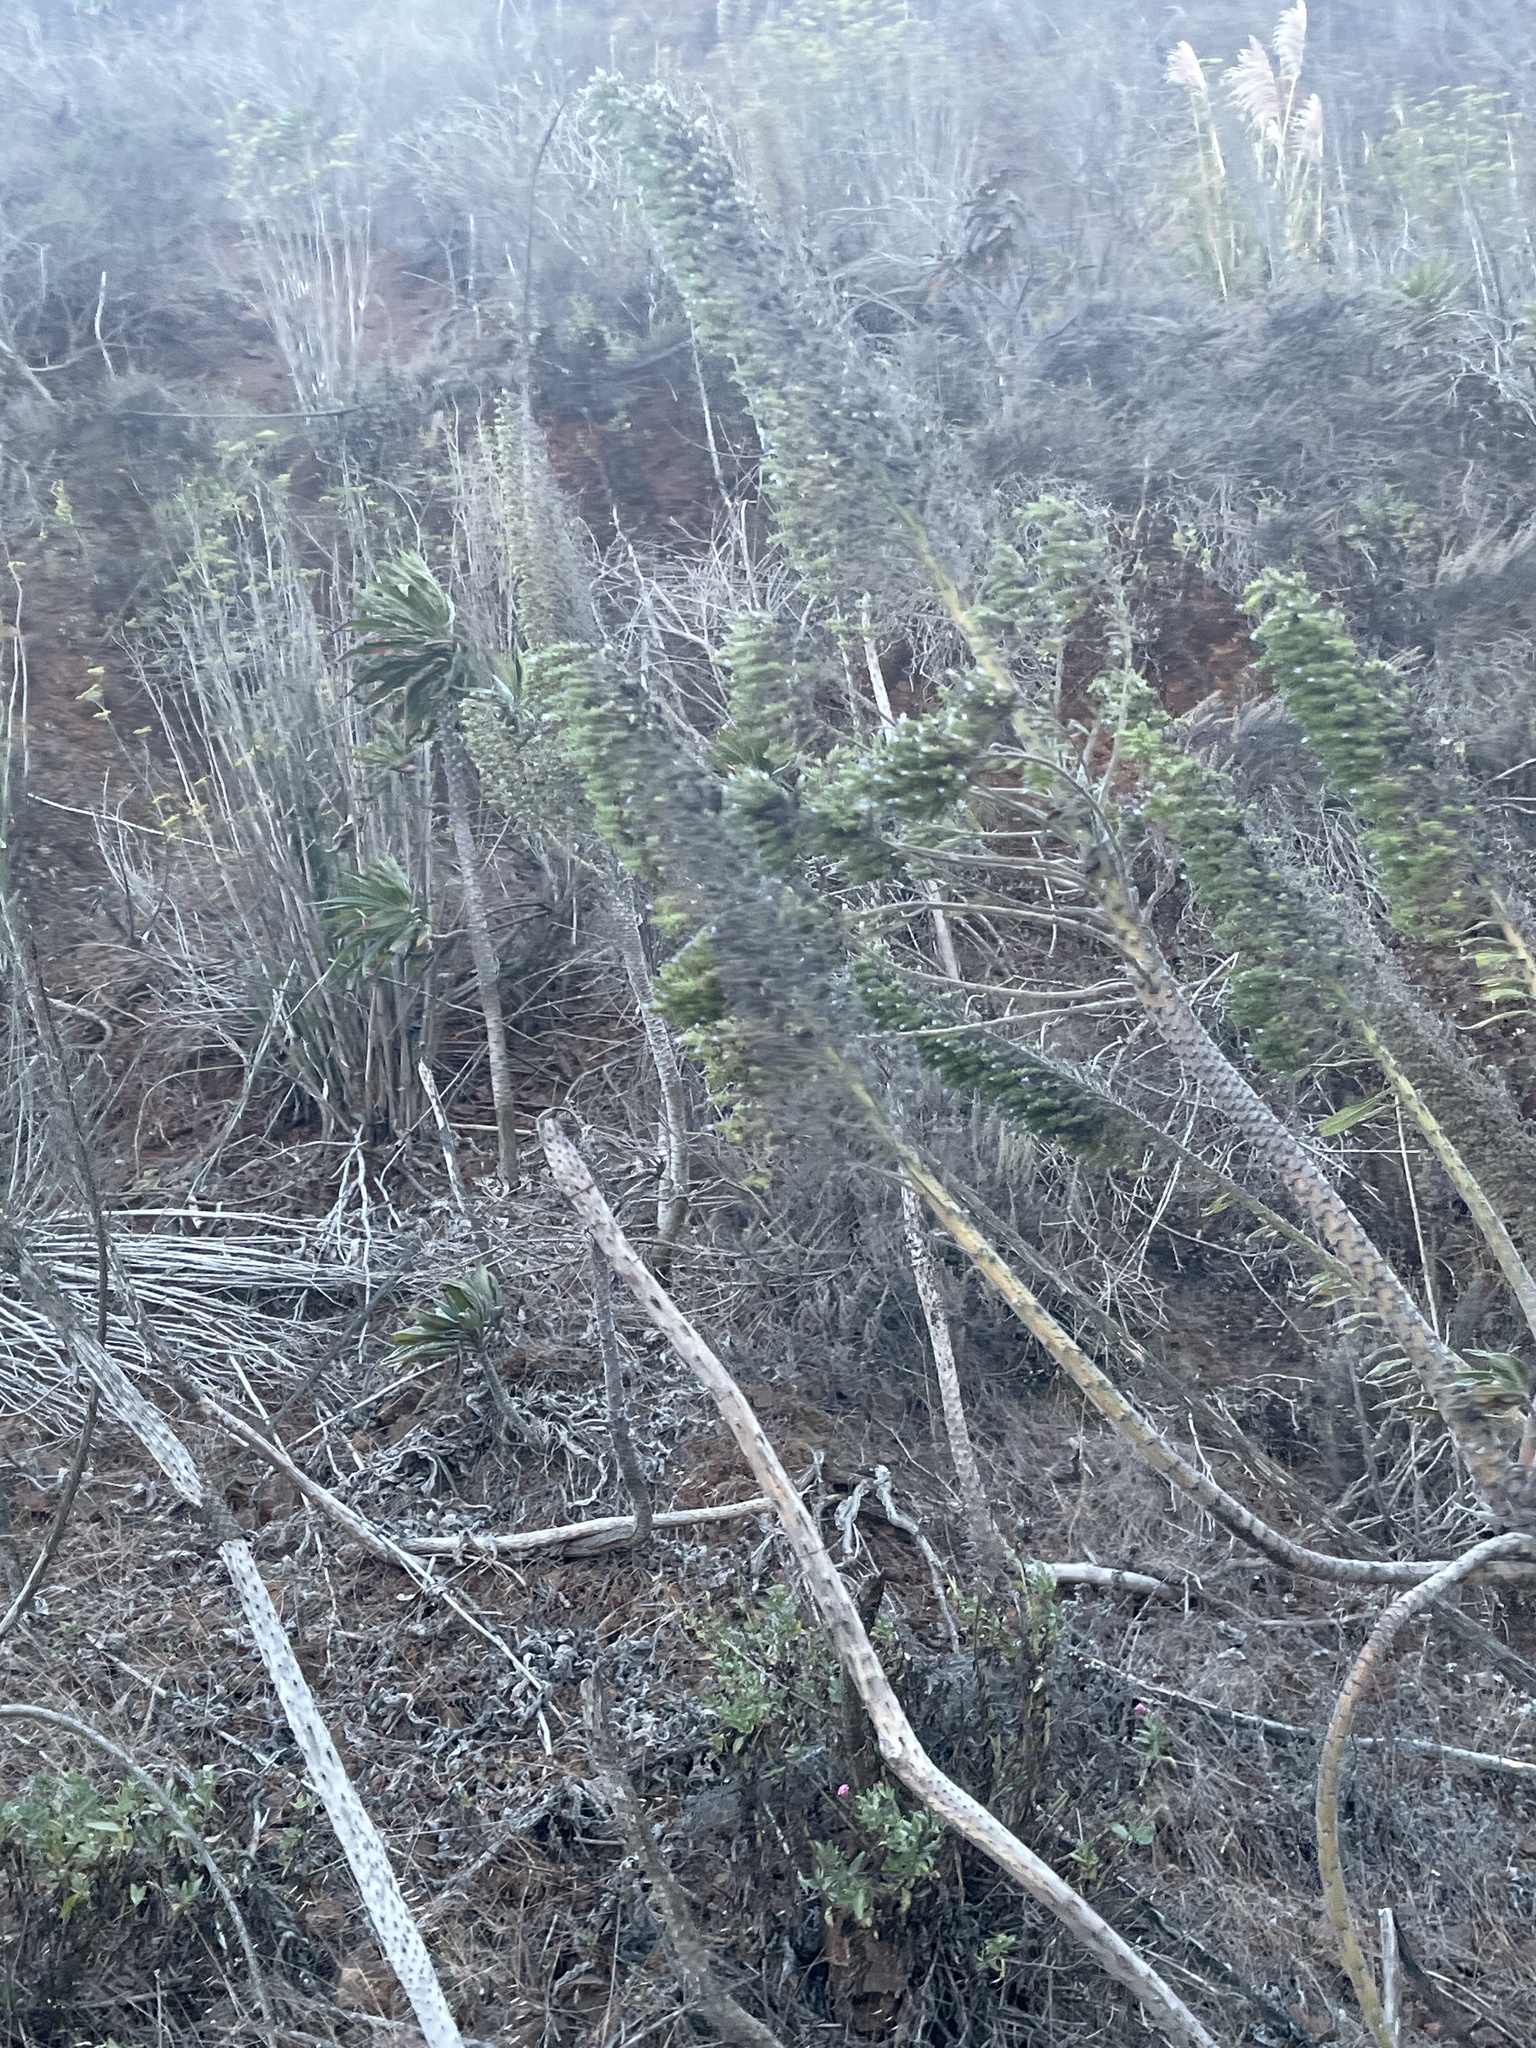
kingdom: Plantae
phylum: Tracheophyta
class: Magnoliopsida
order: Boraginales
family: Boraginaceae
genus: Echium
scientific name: Echium pininana
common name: Giant viper's-bugloss
